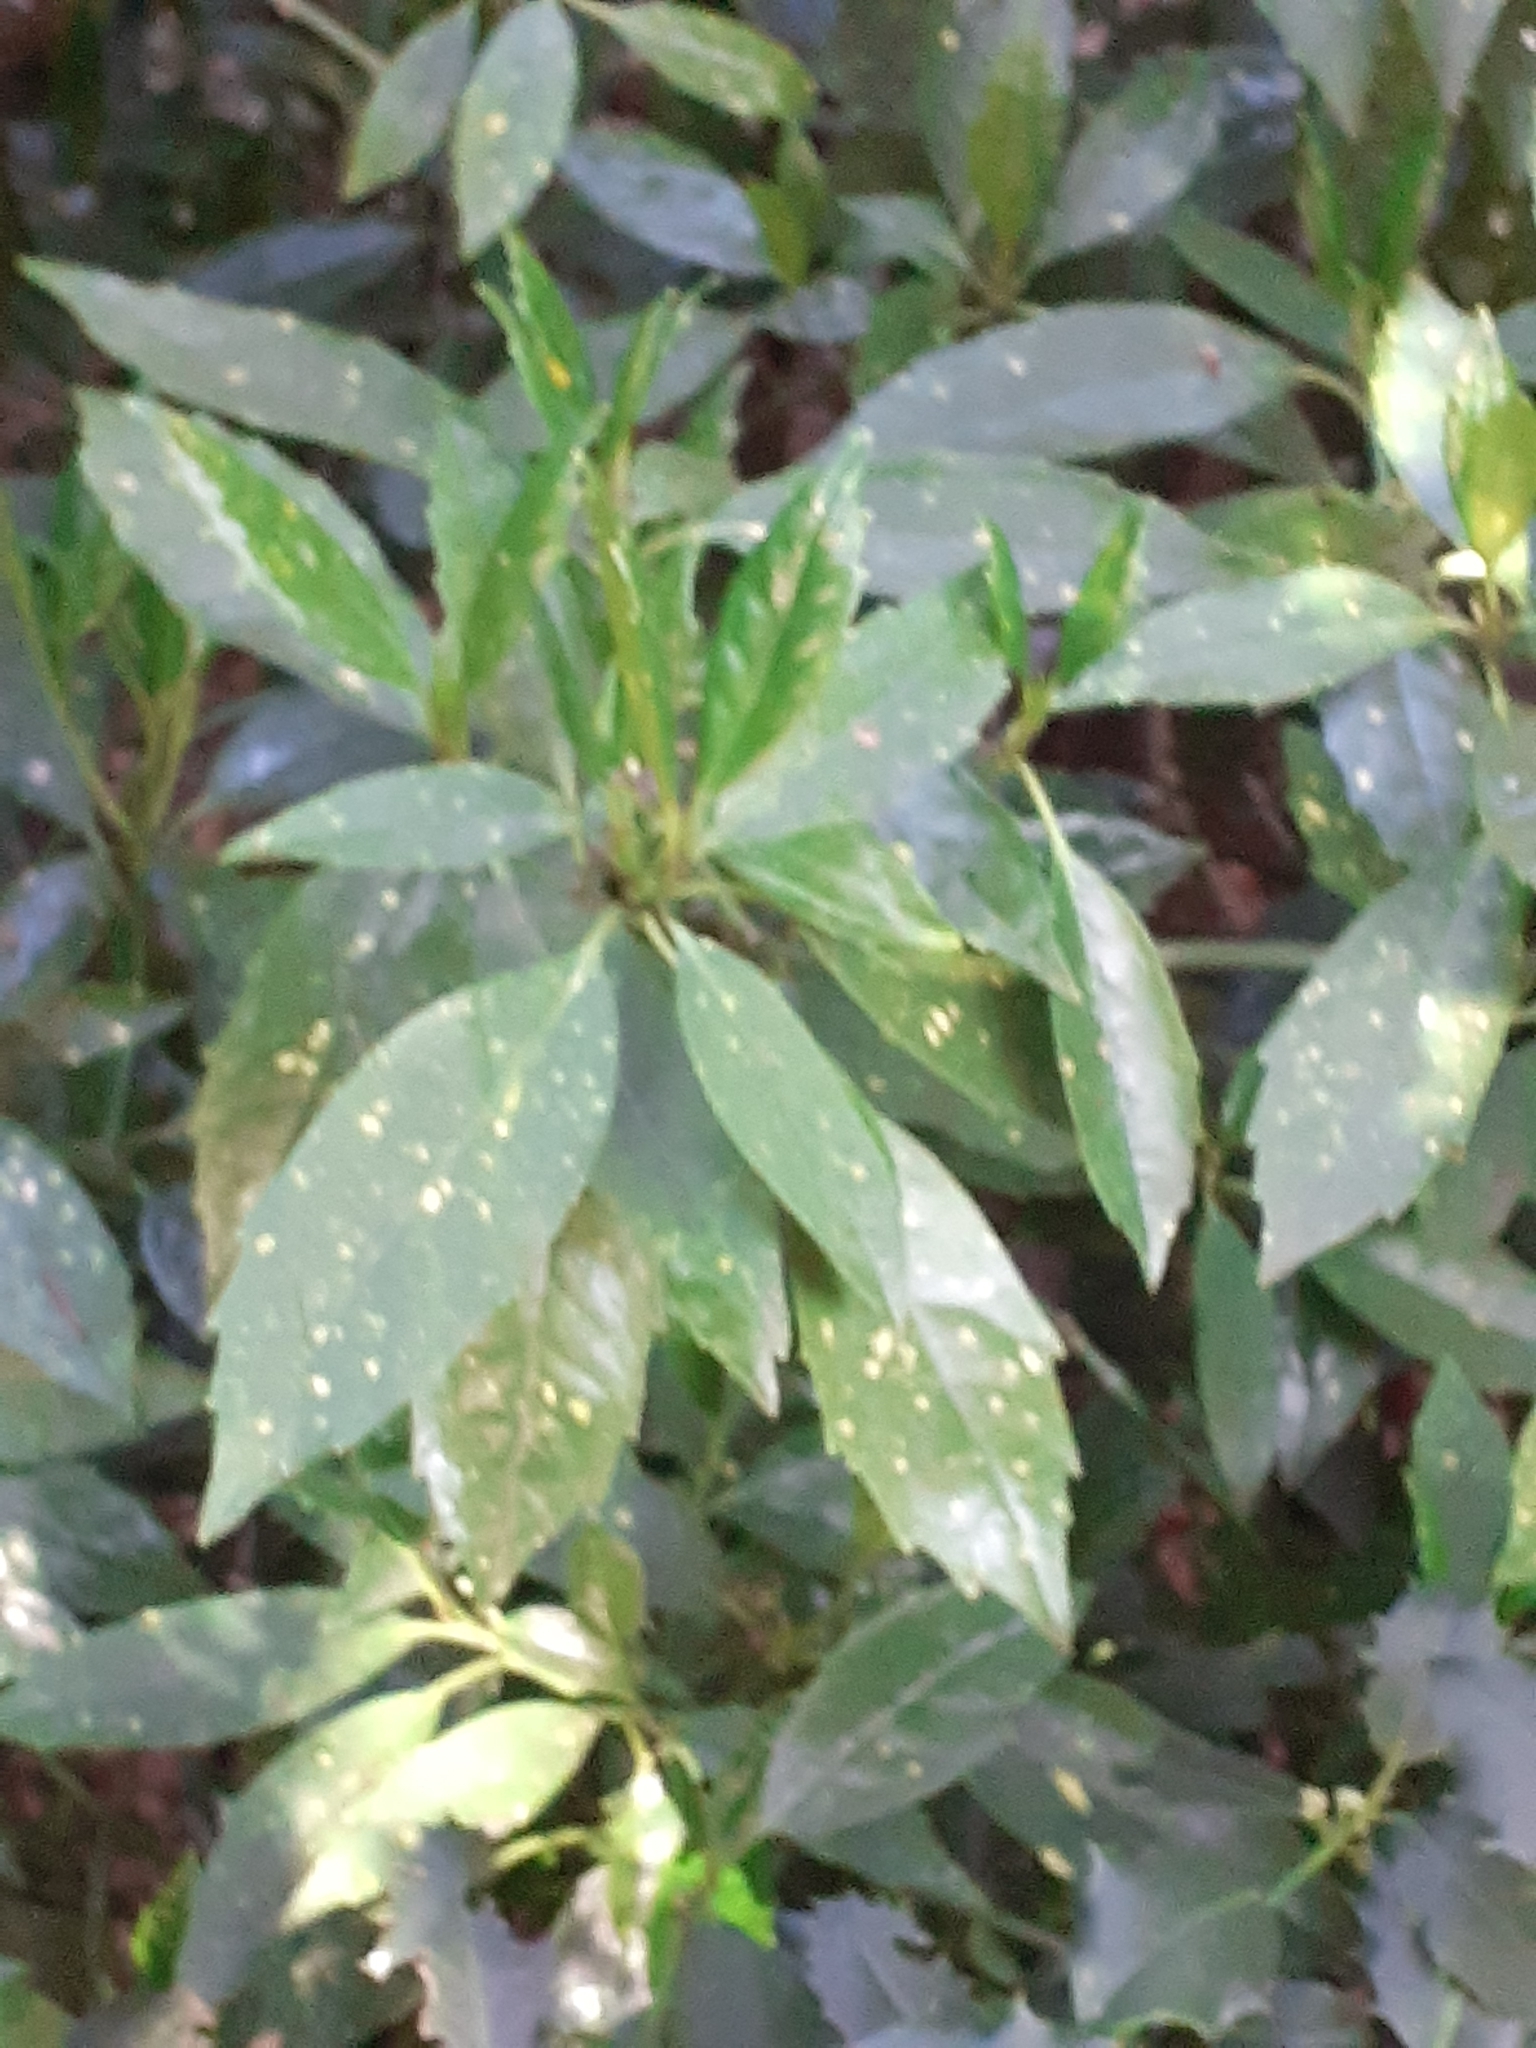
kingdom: Plantae
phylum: Tracheophyta
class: Magnoliopsida
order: Garryales
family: Garryaceae
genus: Aucuba
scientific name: Aucuba japonica
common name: Spotted-laurel
